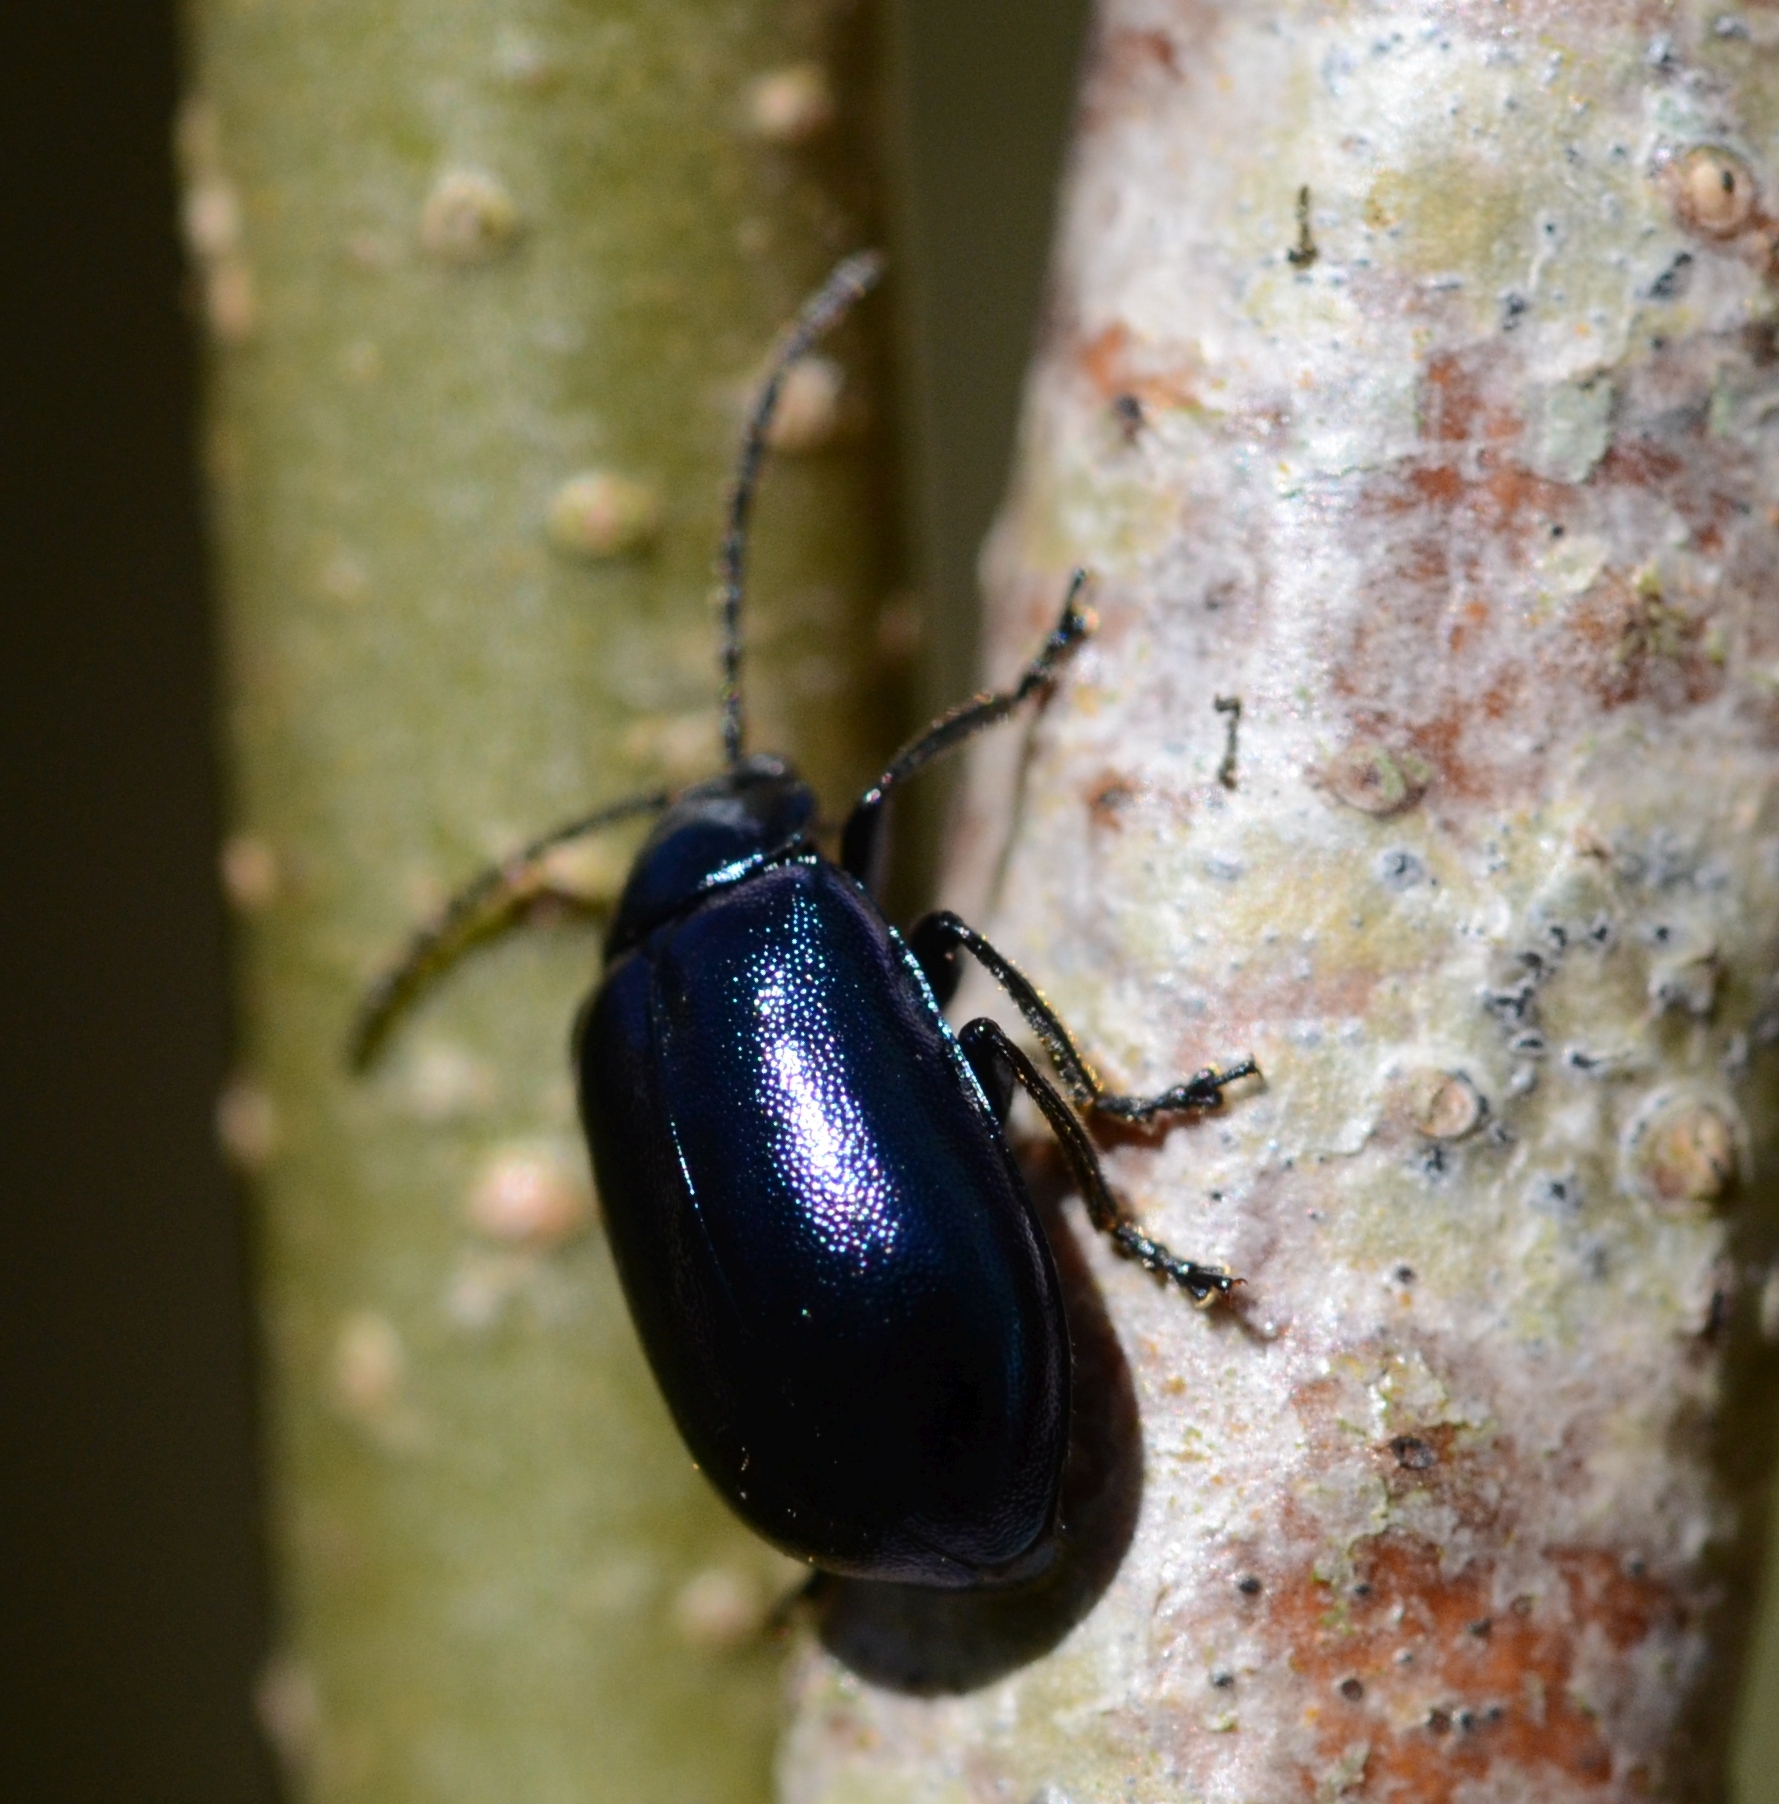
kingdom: Animalia
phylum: Arthropoda
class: Insecta
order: Coleoptera
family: Chrysomelidae
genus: Agelastica
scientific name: Agelastica alni
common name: Alder leaf beetle
